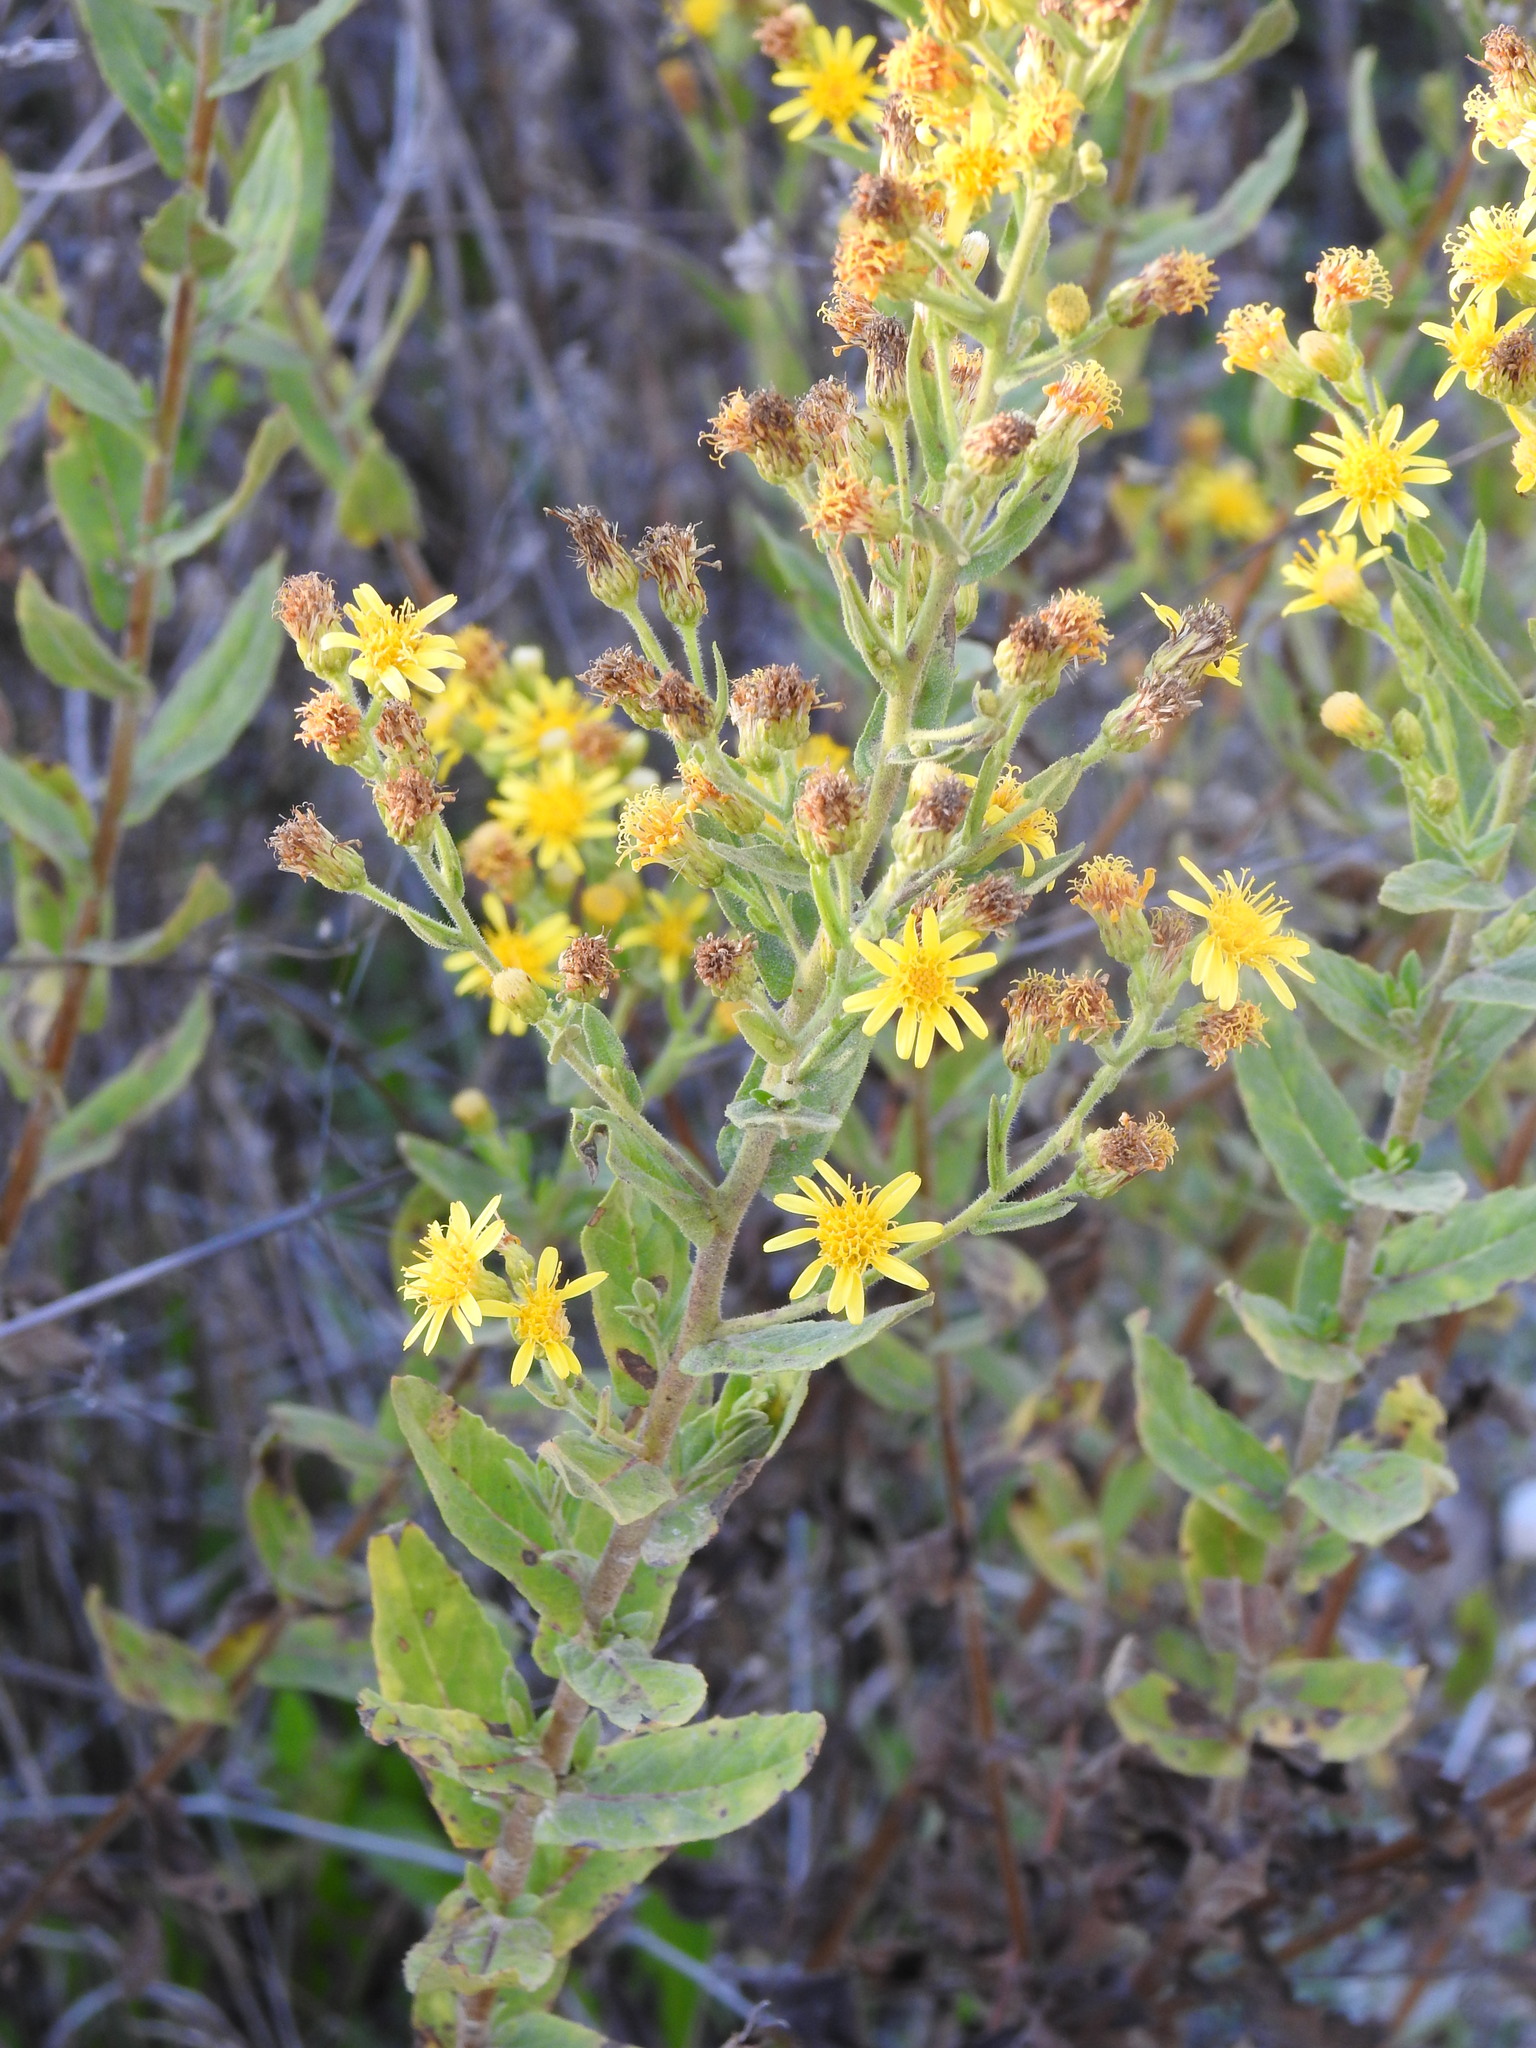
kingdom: Plantae
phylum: Tracheophyta
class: Magnoliopsida
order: Asterales
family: Asteraceae
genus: Dittrichia
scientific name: Dittrichia viscosa
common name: Woody fleabane
